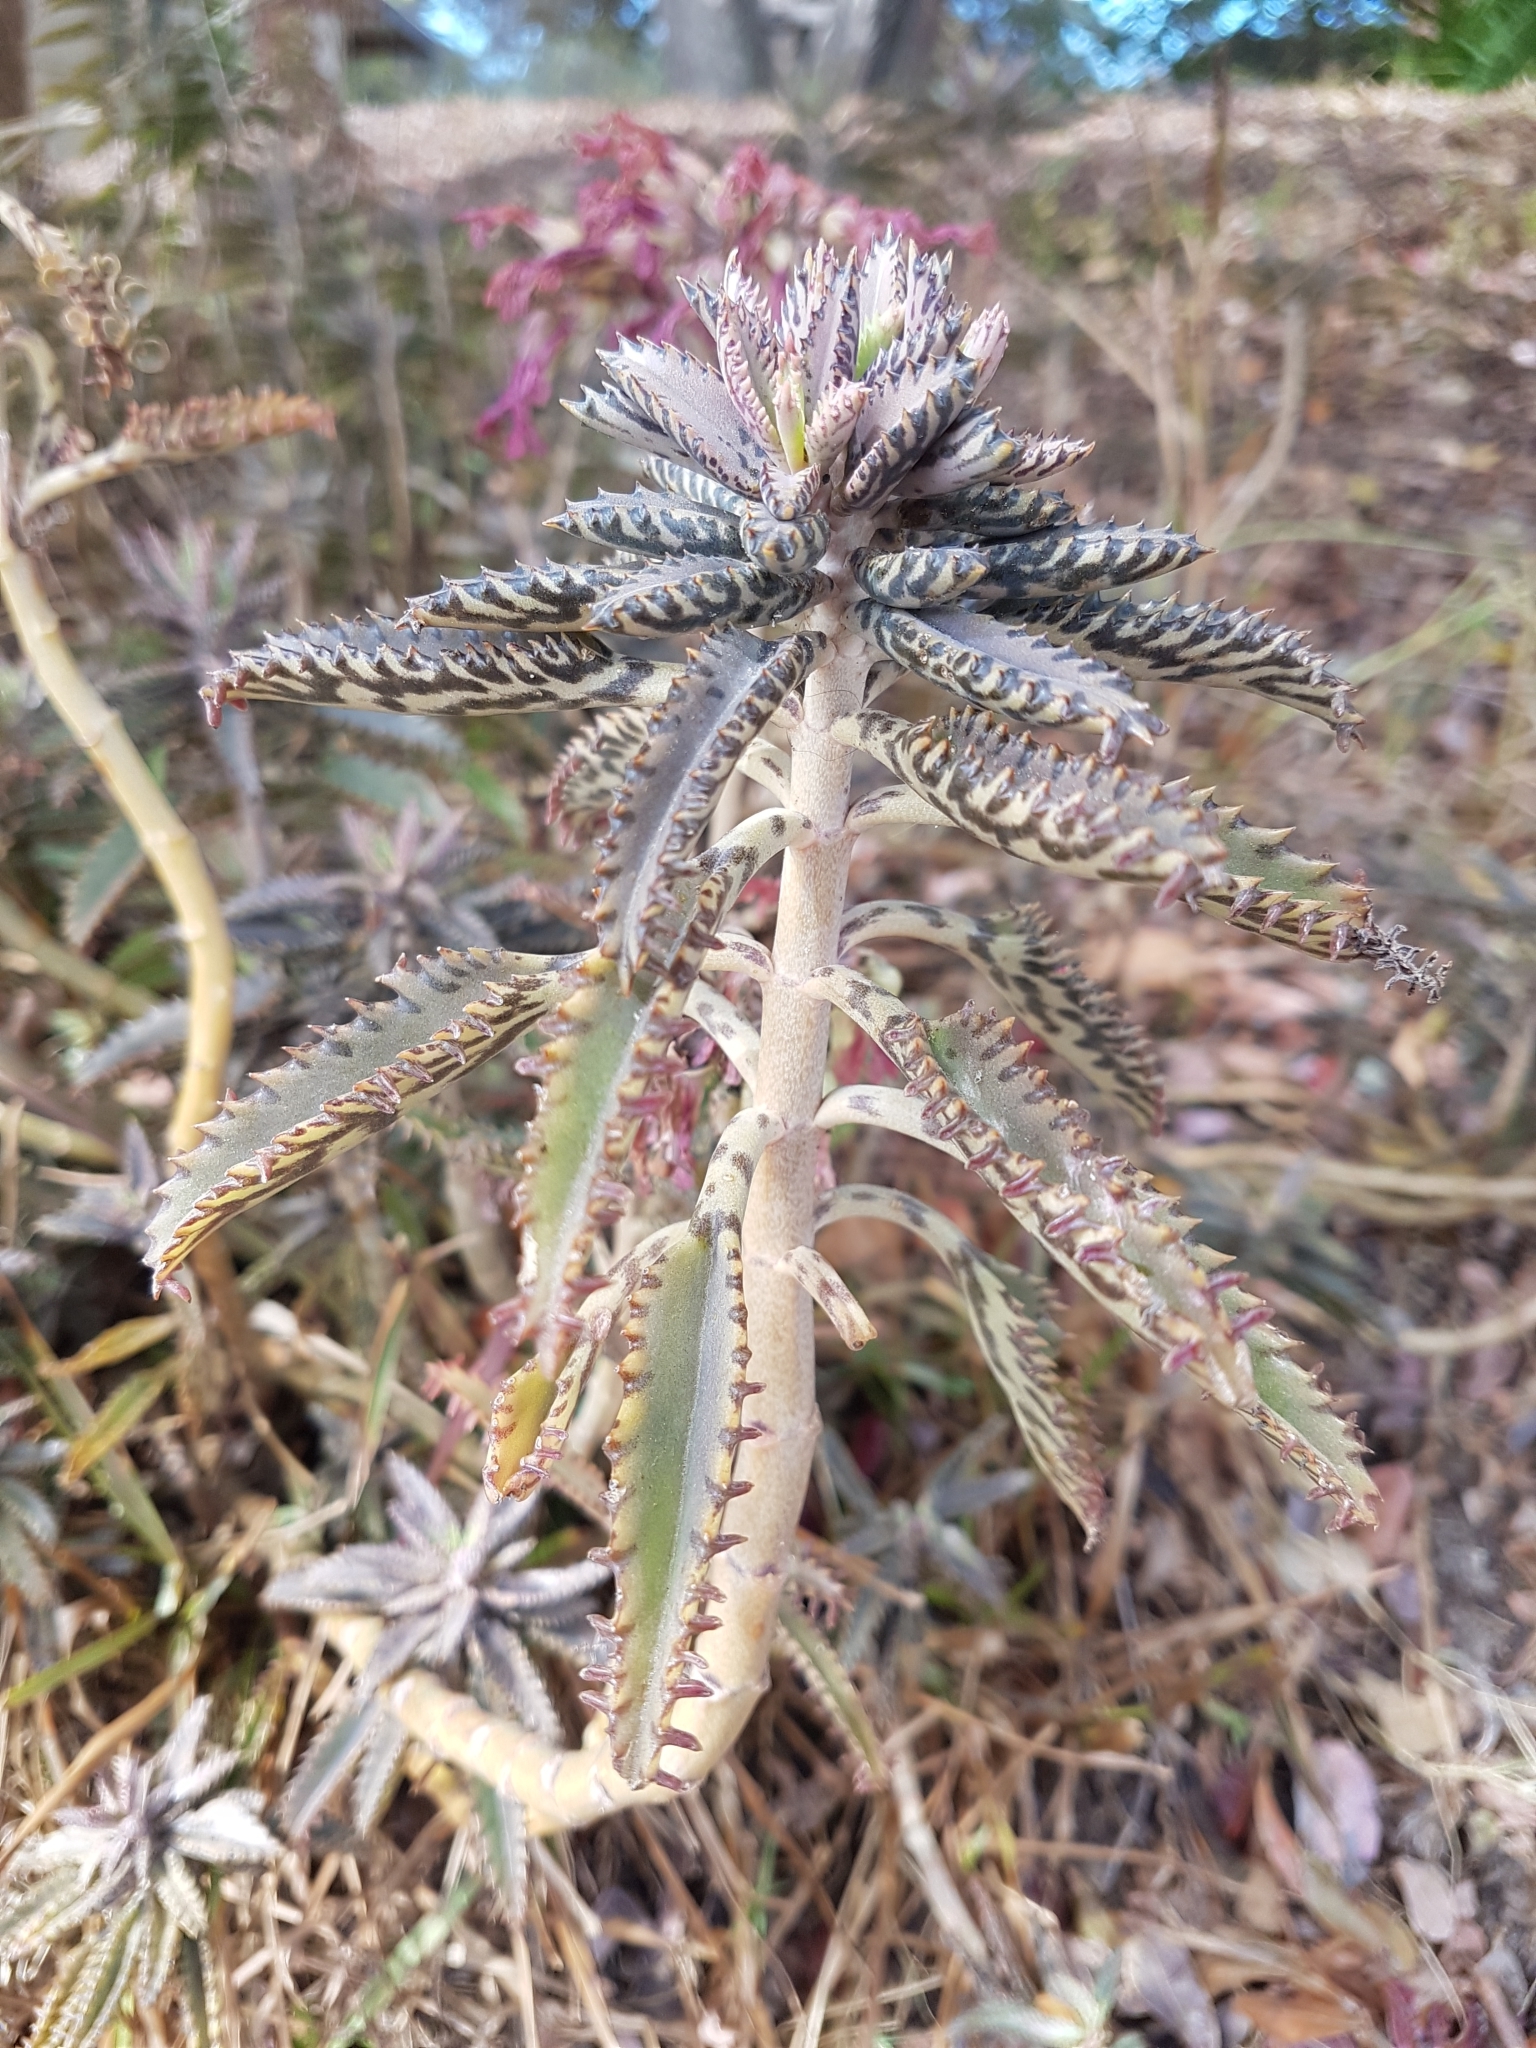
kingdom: Plantae
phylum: Tracheophyta
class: Magnoliopsida
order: Saxifragales
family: Crassulaceae
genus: Kalanchoe
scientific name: Kalanchoe houghtonii
